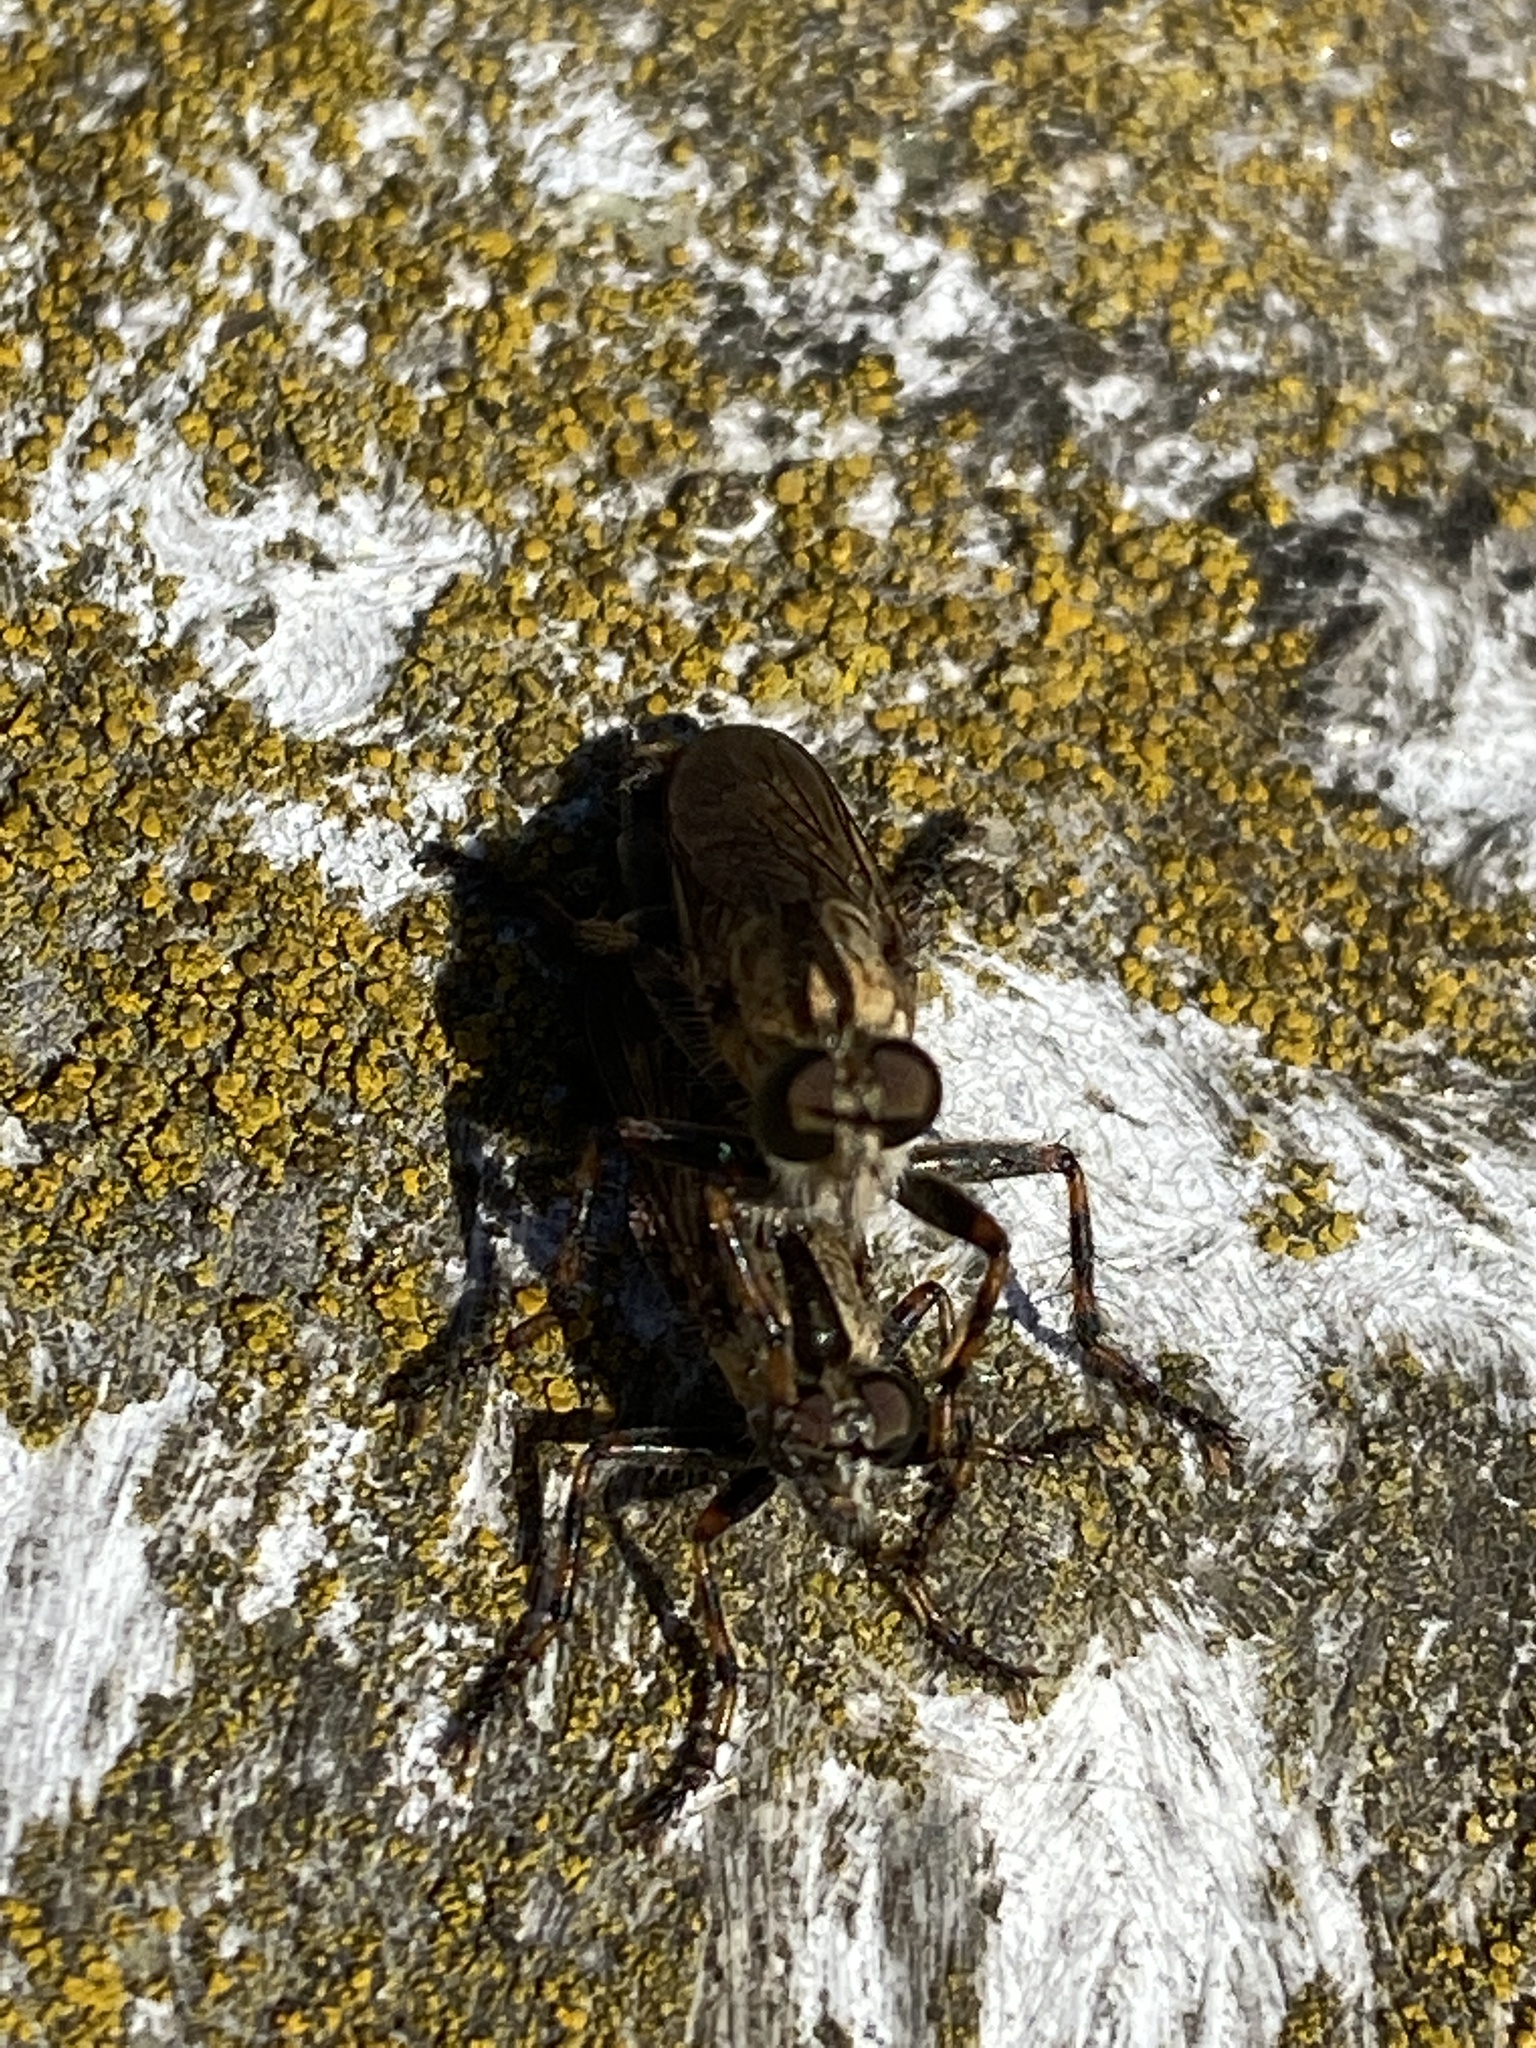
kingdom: Animalia
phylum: Arthropoda
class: Insecta
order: Diptera
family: Asilidae
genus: Epitriptus
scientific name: Epitriptus cingulatus
